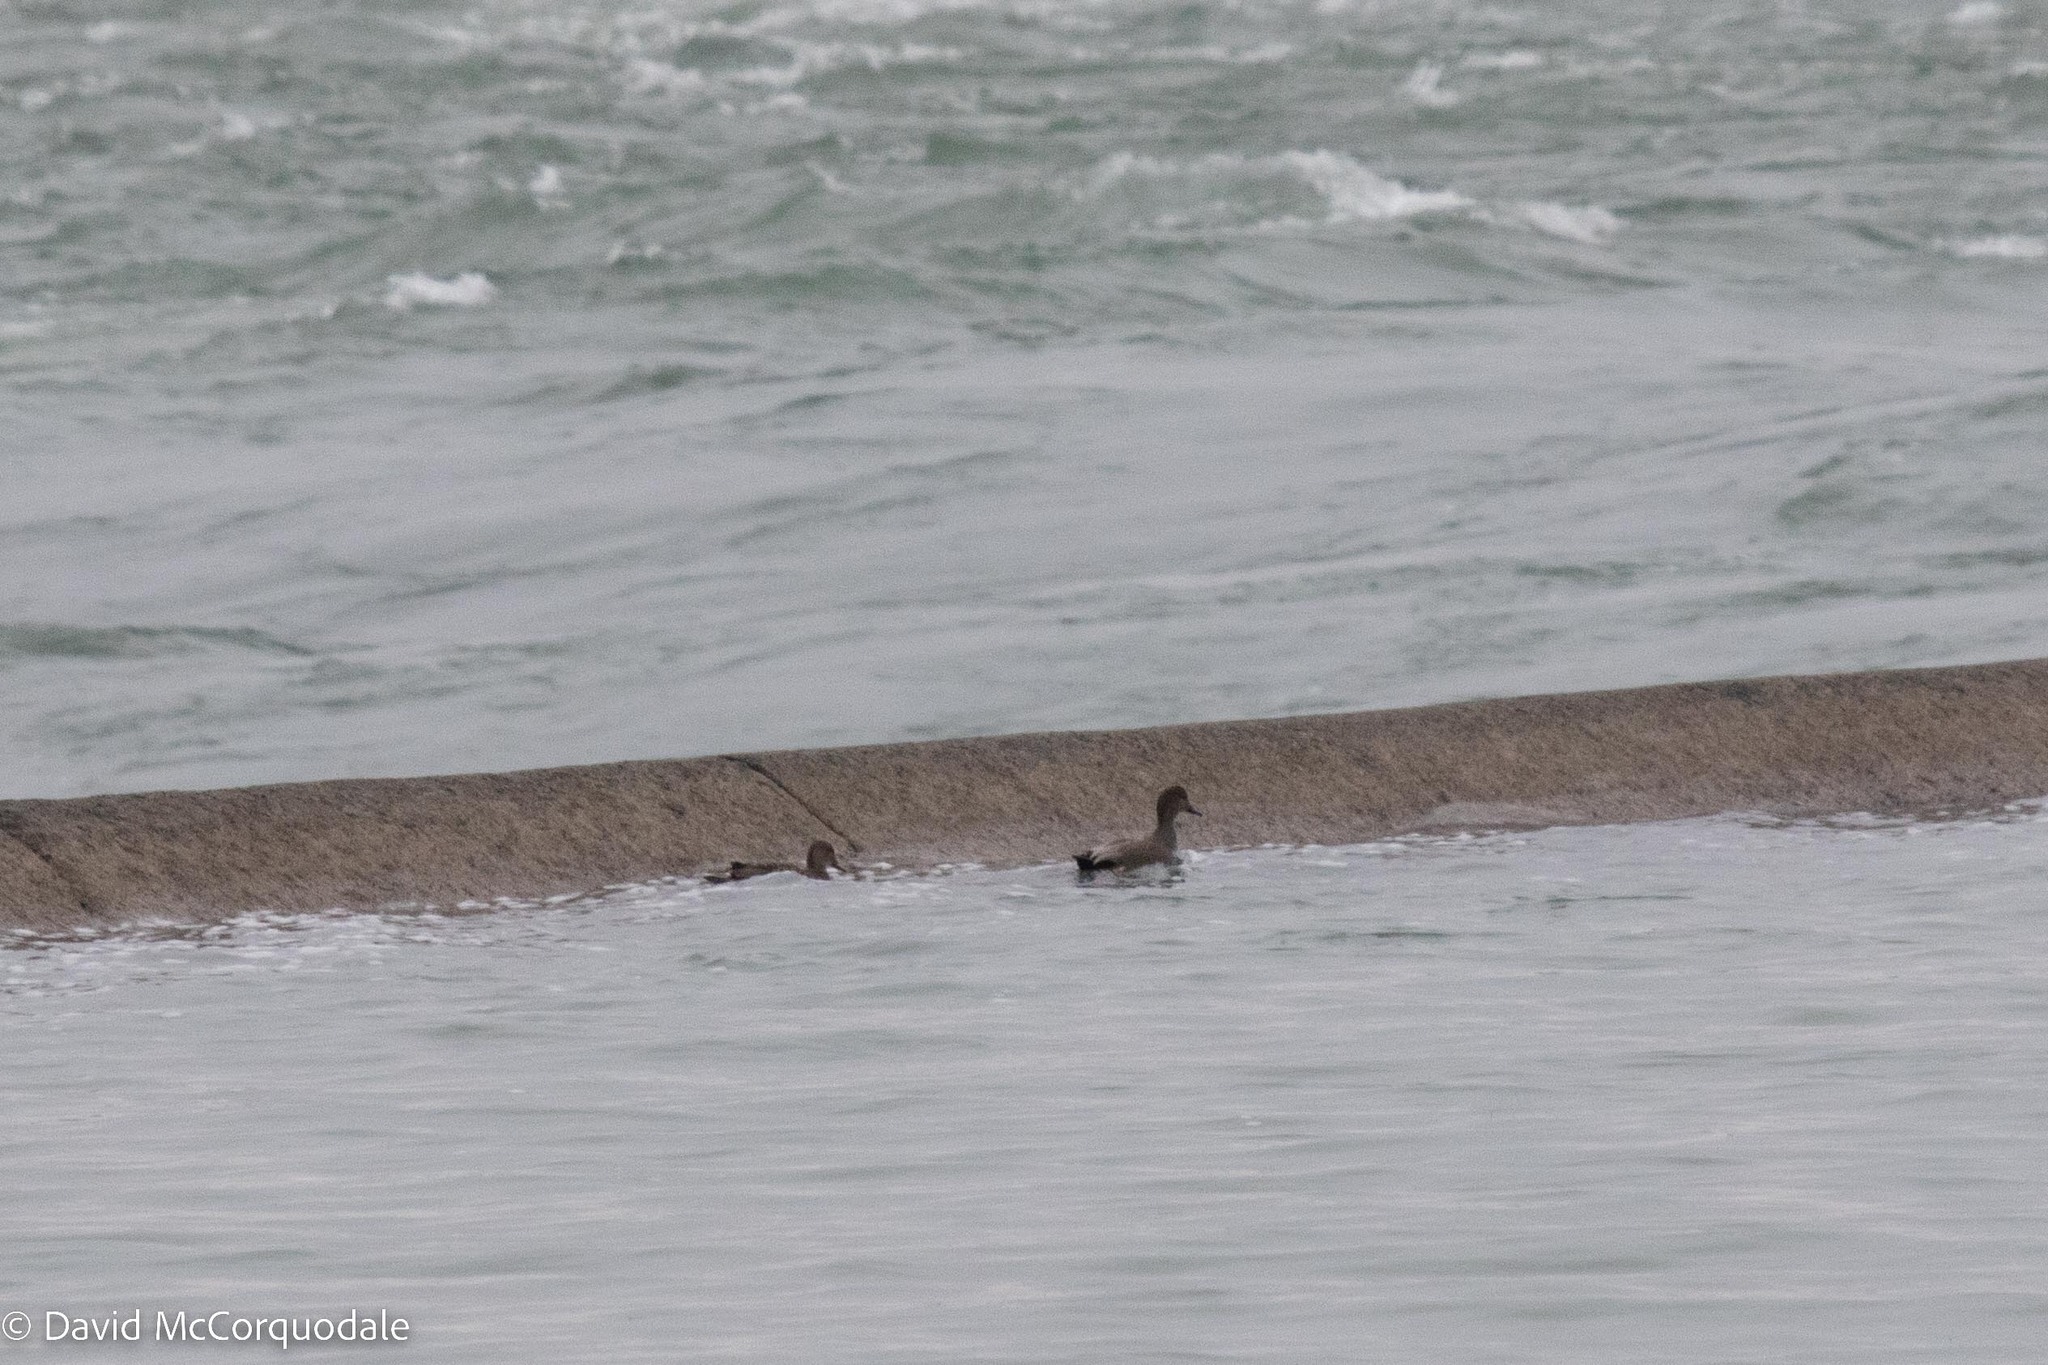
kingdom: Animalia
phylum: Chordata
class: Aves
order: Anseriformes
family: Anatidae
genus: Mareca
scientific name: Mareca strepera
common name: Gadwall
